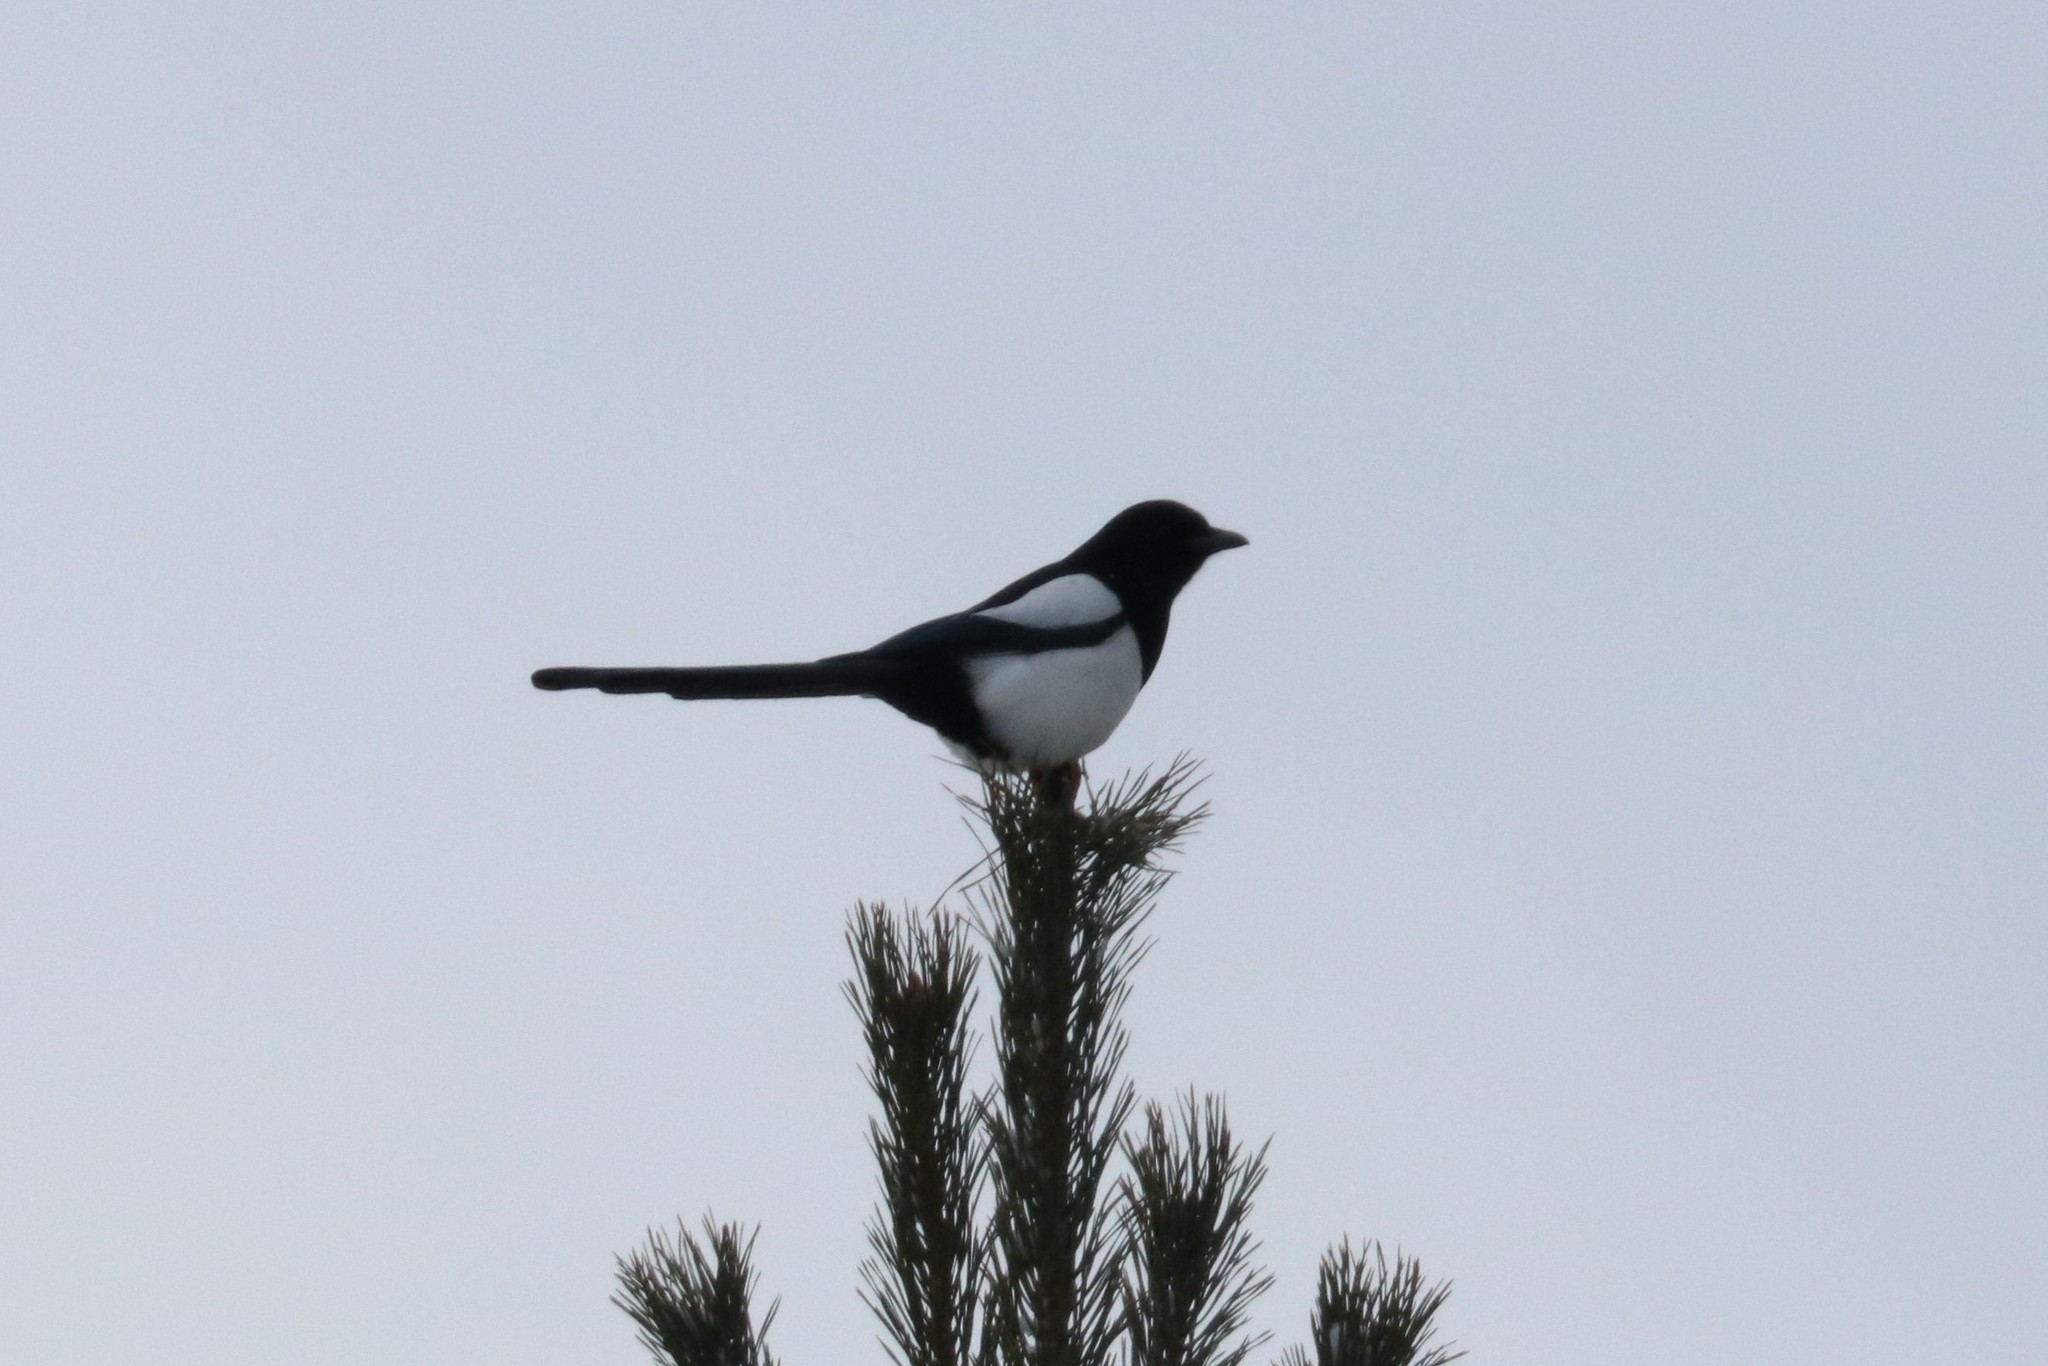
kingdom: Animalia
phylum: Chordata
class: Aves
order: Passeriformes
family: Corvidae
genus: Pica
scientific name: Pica pica
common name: Eurasian magpie
